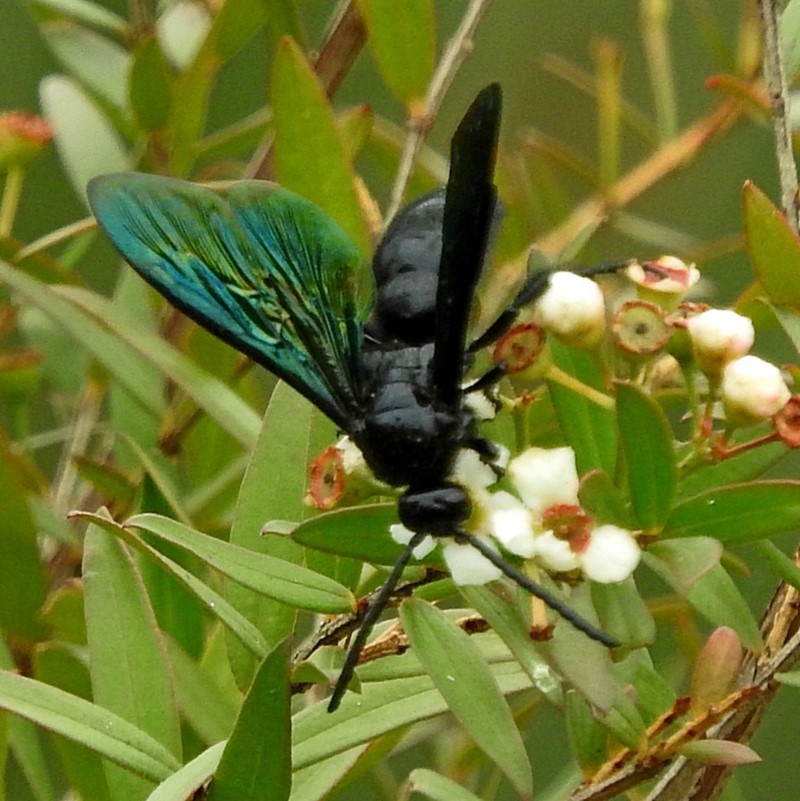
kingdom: Animalia
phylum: Arthropoda
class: Insecta
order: Hymenoptera
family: Scoliidae
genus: Austroscolia
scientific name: Austroscolia
